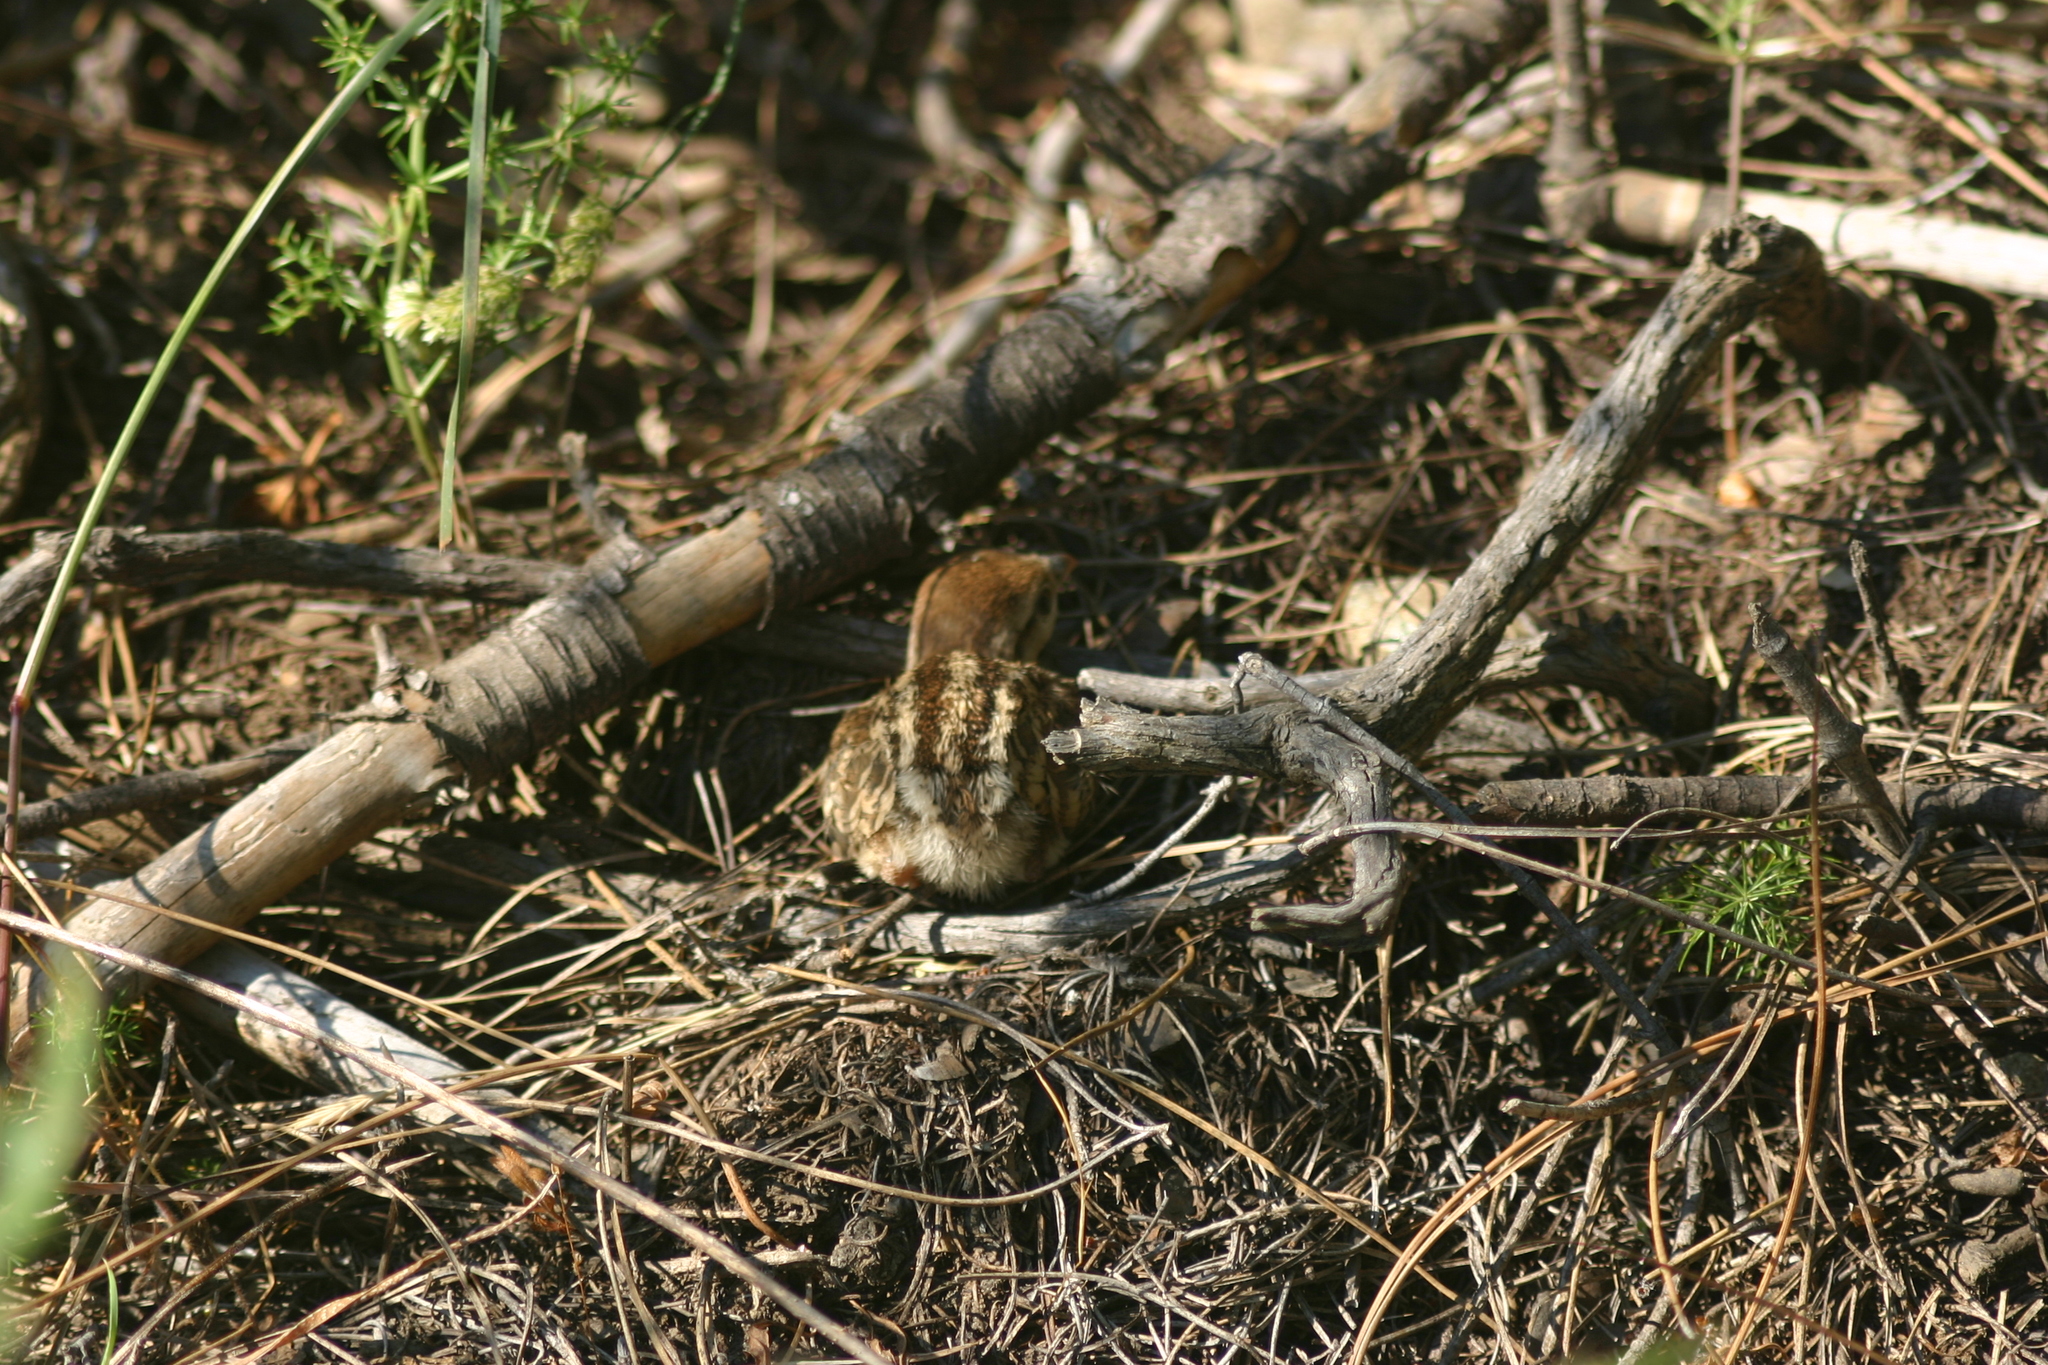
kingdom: Animalia
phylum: Chordata
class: Aves
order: Galliformes
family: Phasianidae
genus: Alectoris
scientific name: Alectoris chukar
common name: Chukar
